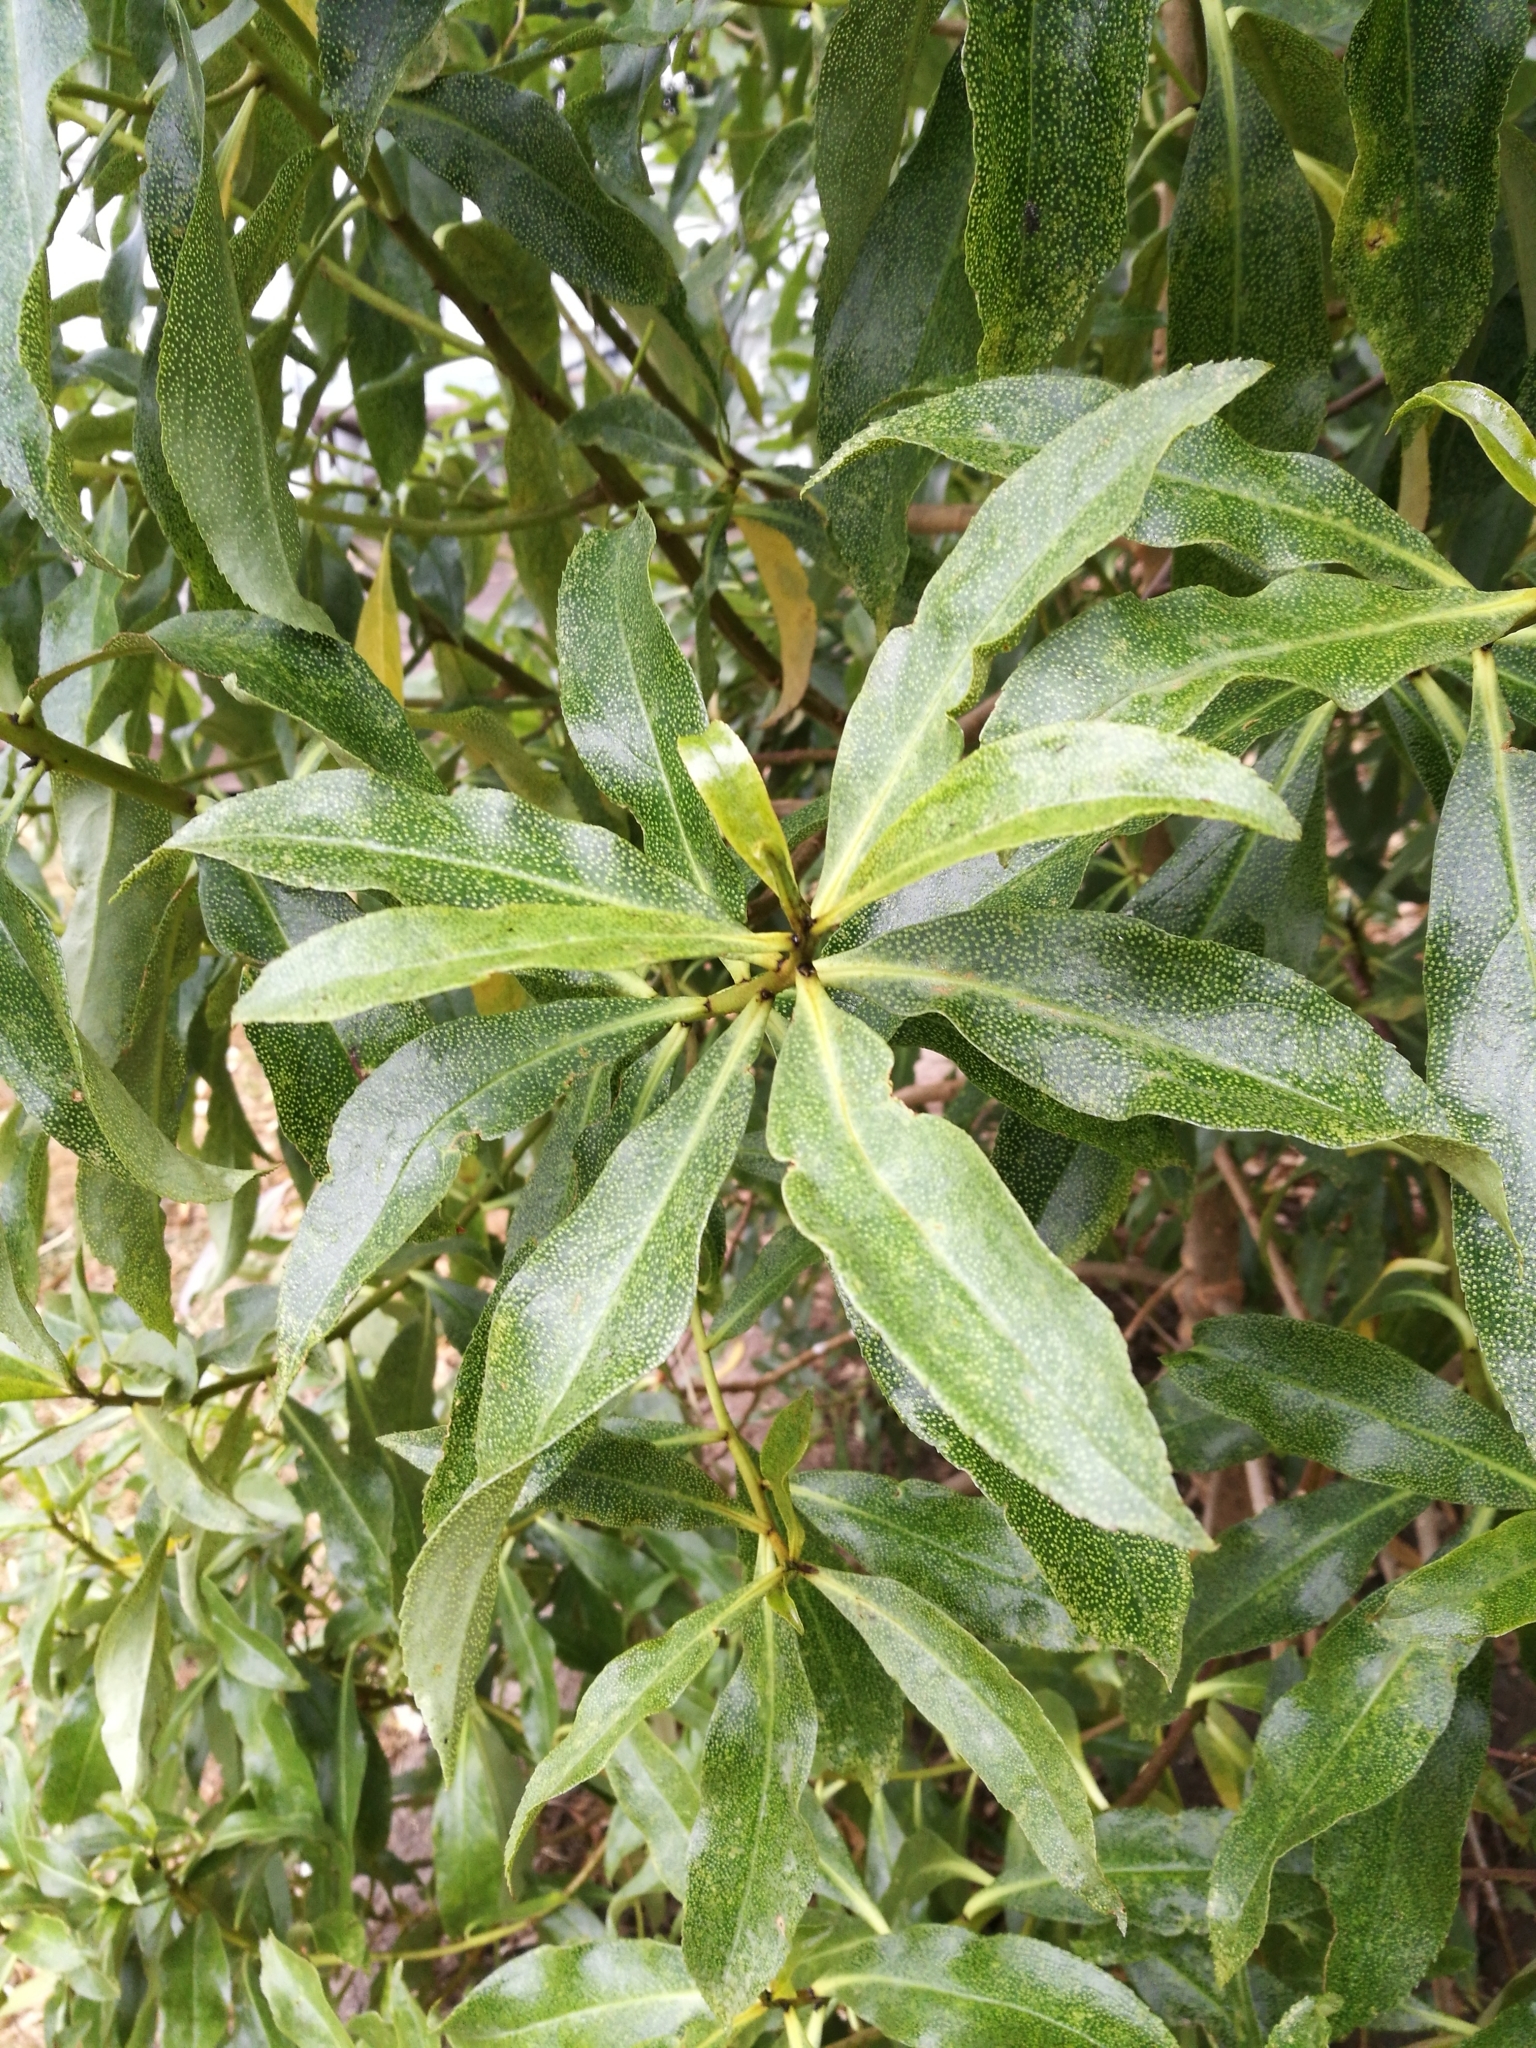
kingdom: Plantae
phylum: Tracheophyta
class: Magnoliopsida
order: Lamiales
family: Scrophulariaceae
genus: Myoporum
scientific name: Myoporum laetum
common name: Ngaio tree
